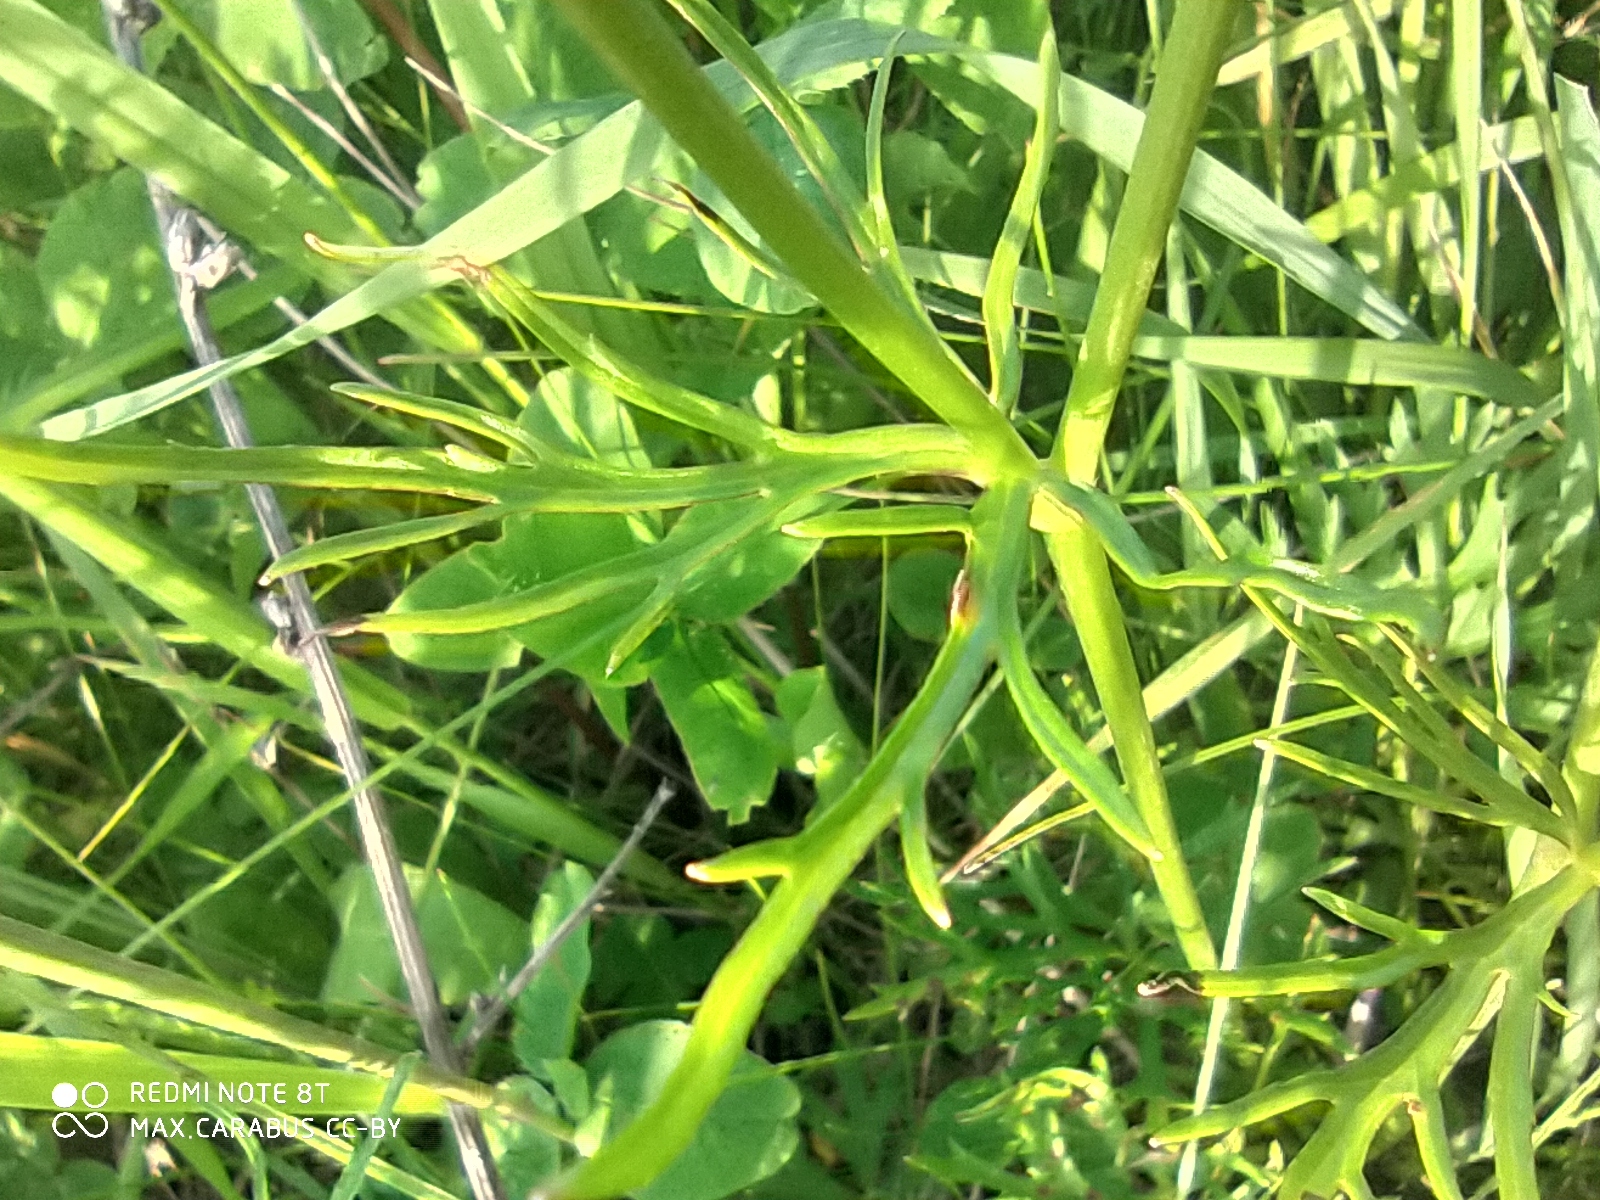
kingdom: Plantae
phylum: Tracheophyta
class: Magnoliopsida
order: Ranunculales
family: Ranunculaceae
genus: Ranunculus
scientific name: Ranunculus polyanthemos
